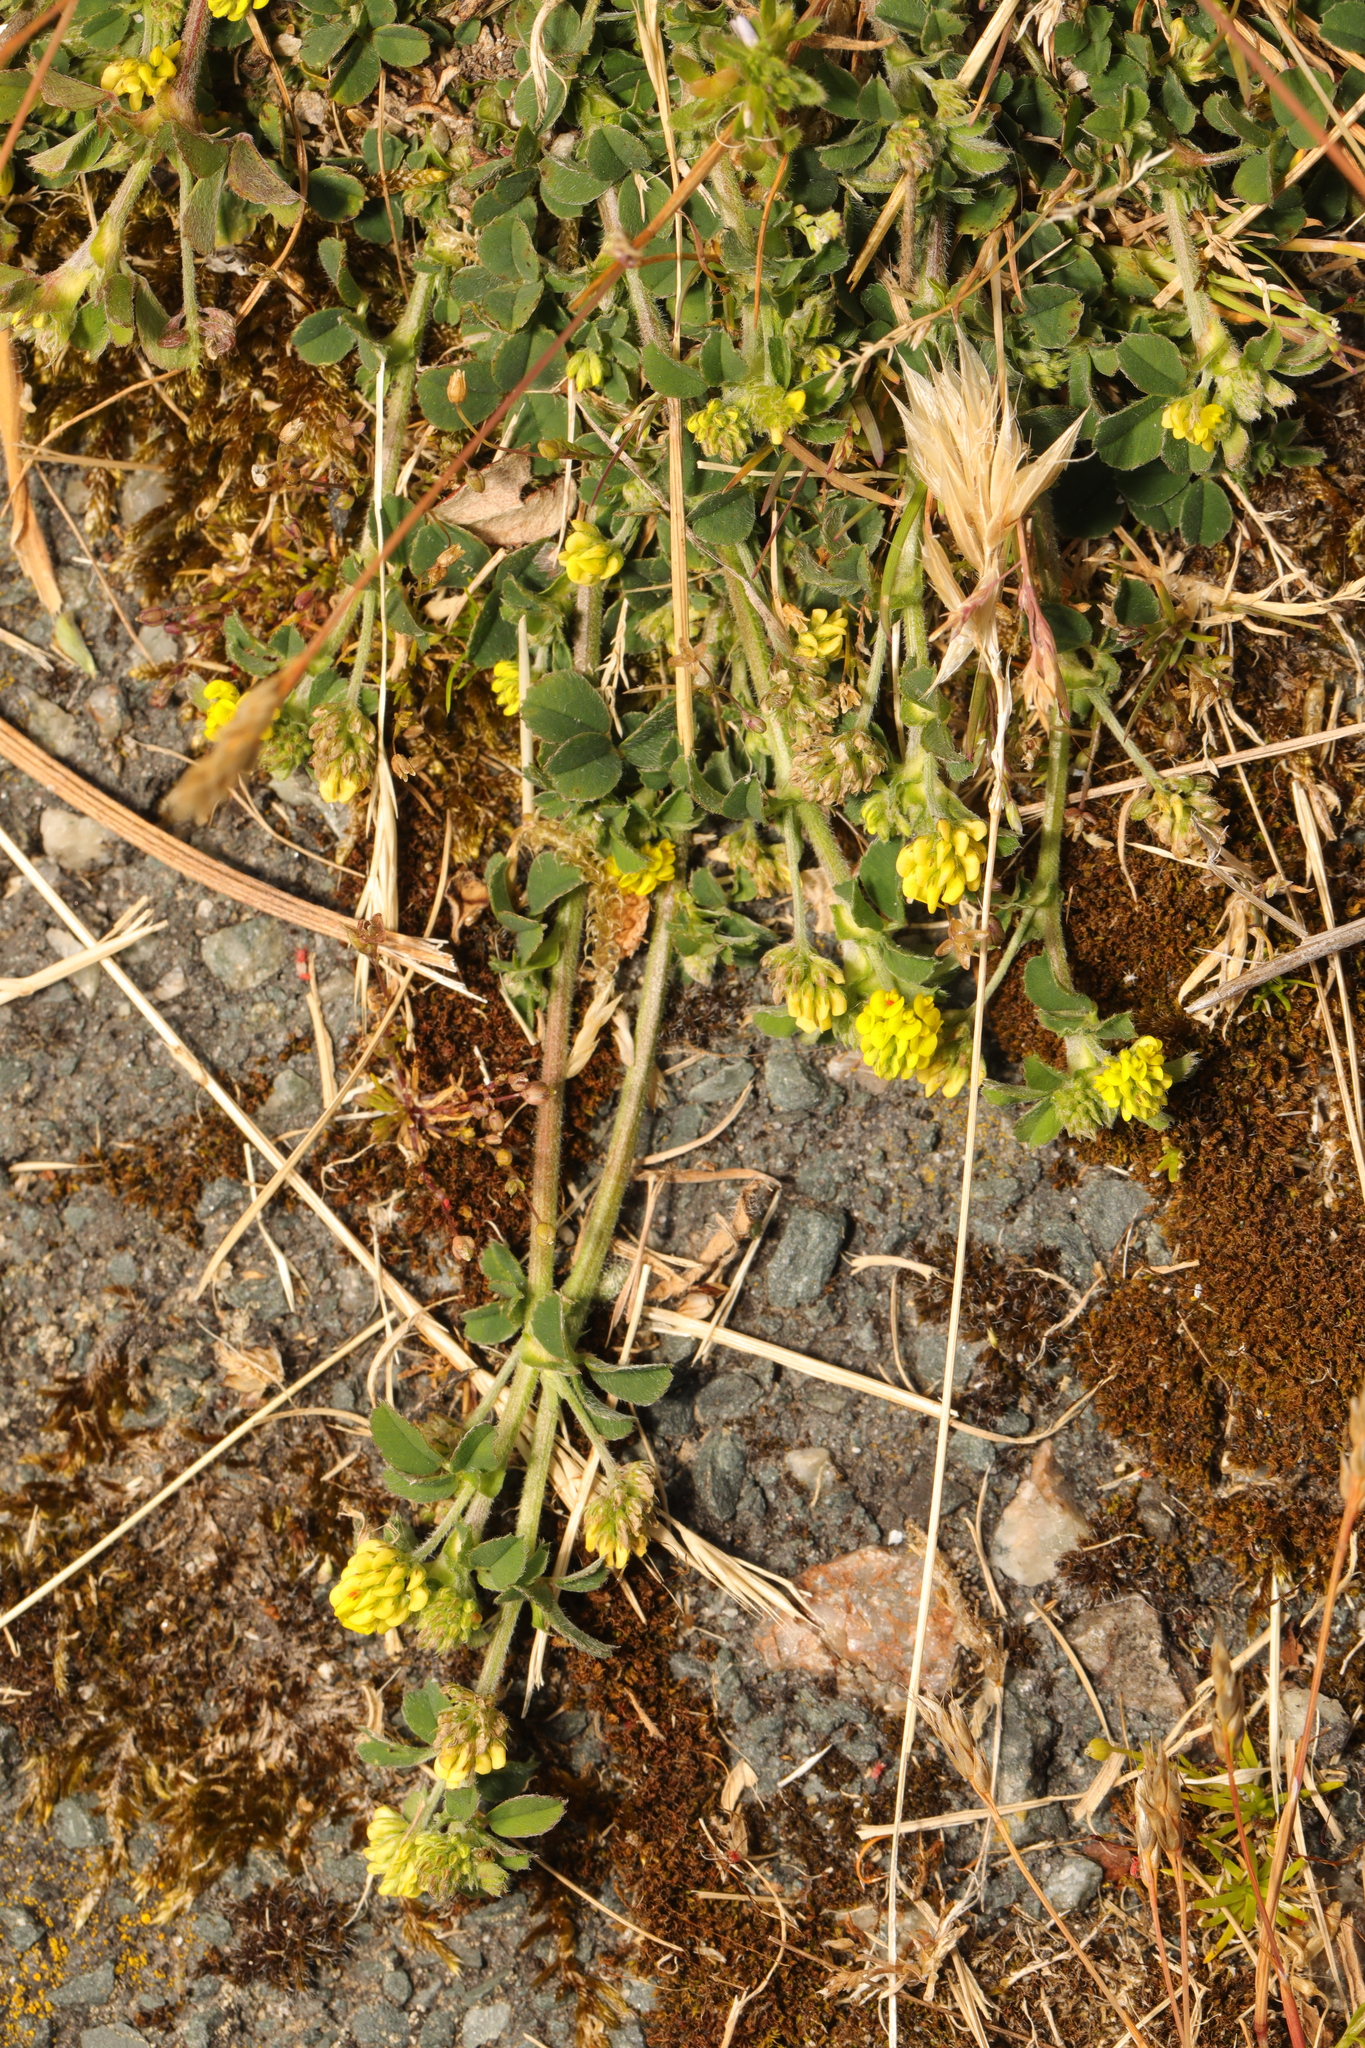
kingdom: Plantae
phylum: Tracheophyta
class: Magnoliopsida
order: Fabales
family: Fabaceae
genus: Medicago
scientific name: Medicago lupulina
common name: Black medick
